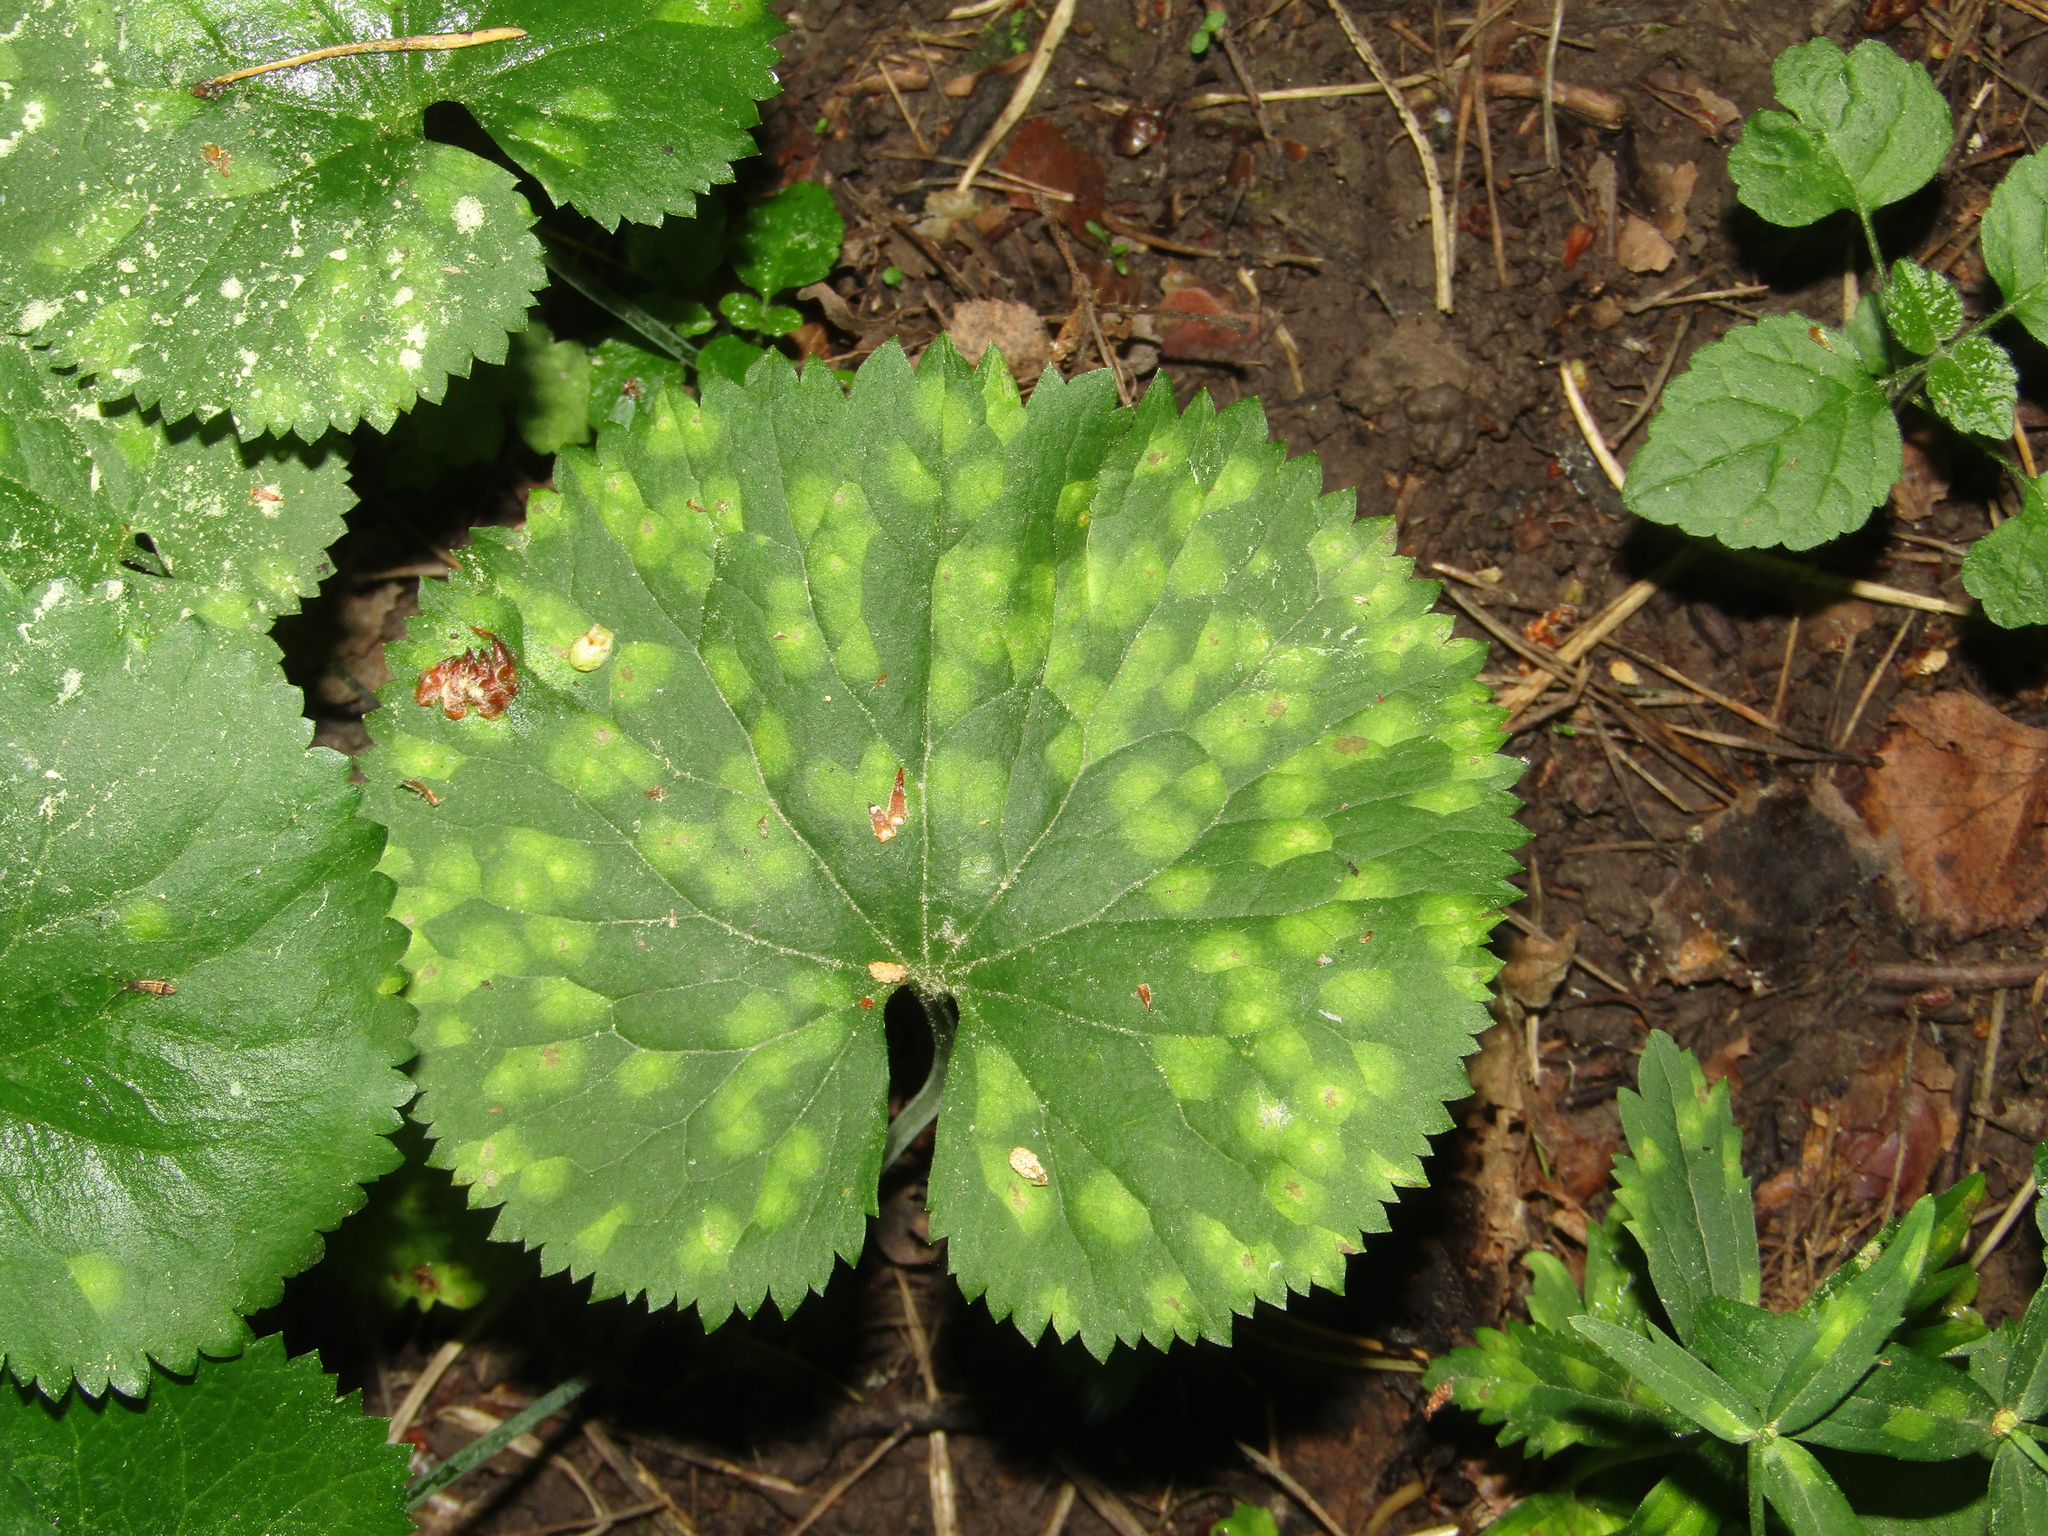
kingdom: Plantae
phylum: Tracheophyta
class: Magnoliopsida
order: Ranunculales
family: Ranunculaceae
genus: Ranunculus
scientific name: Ranunculus cassubicus
